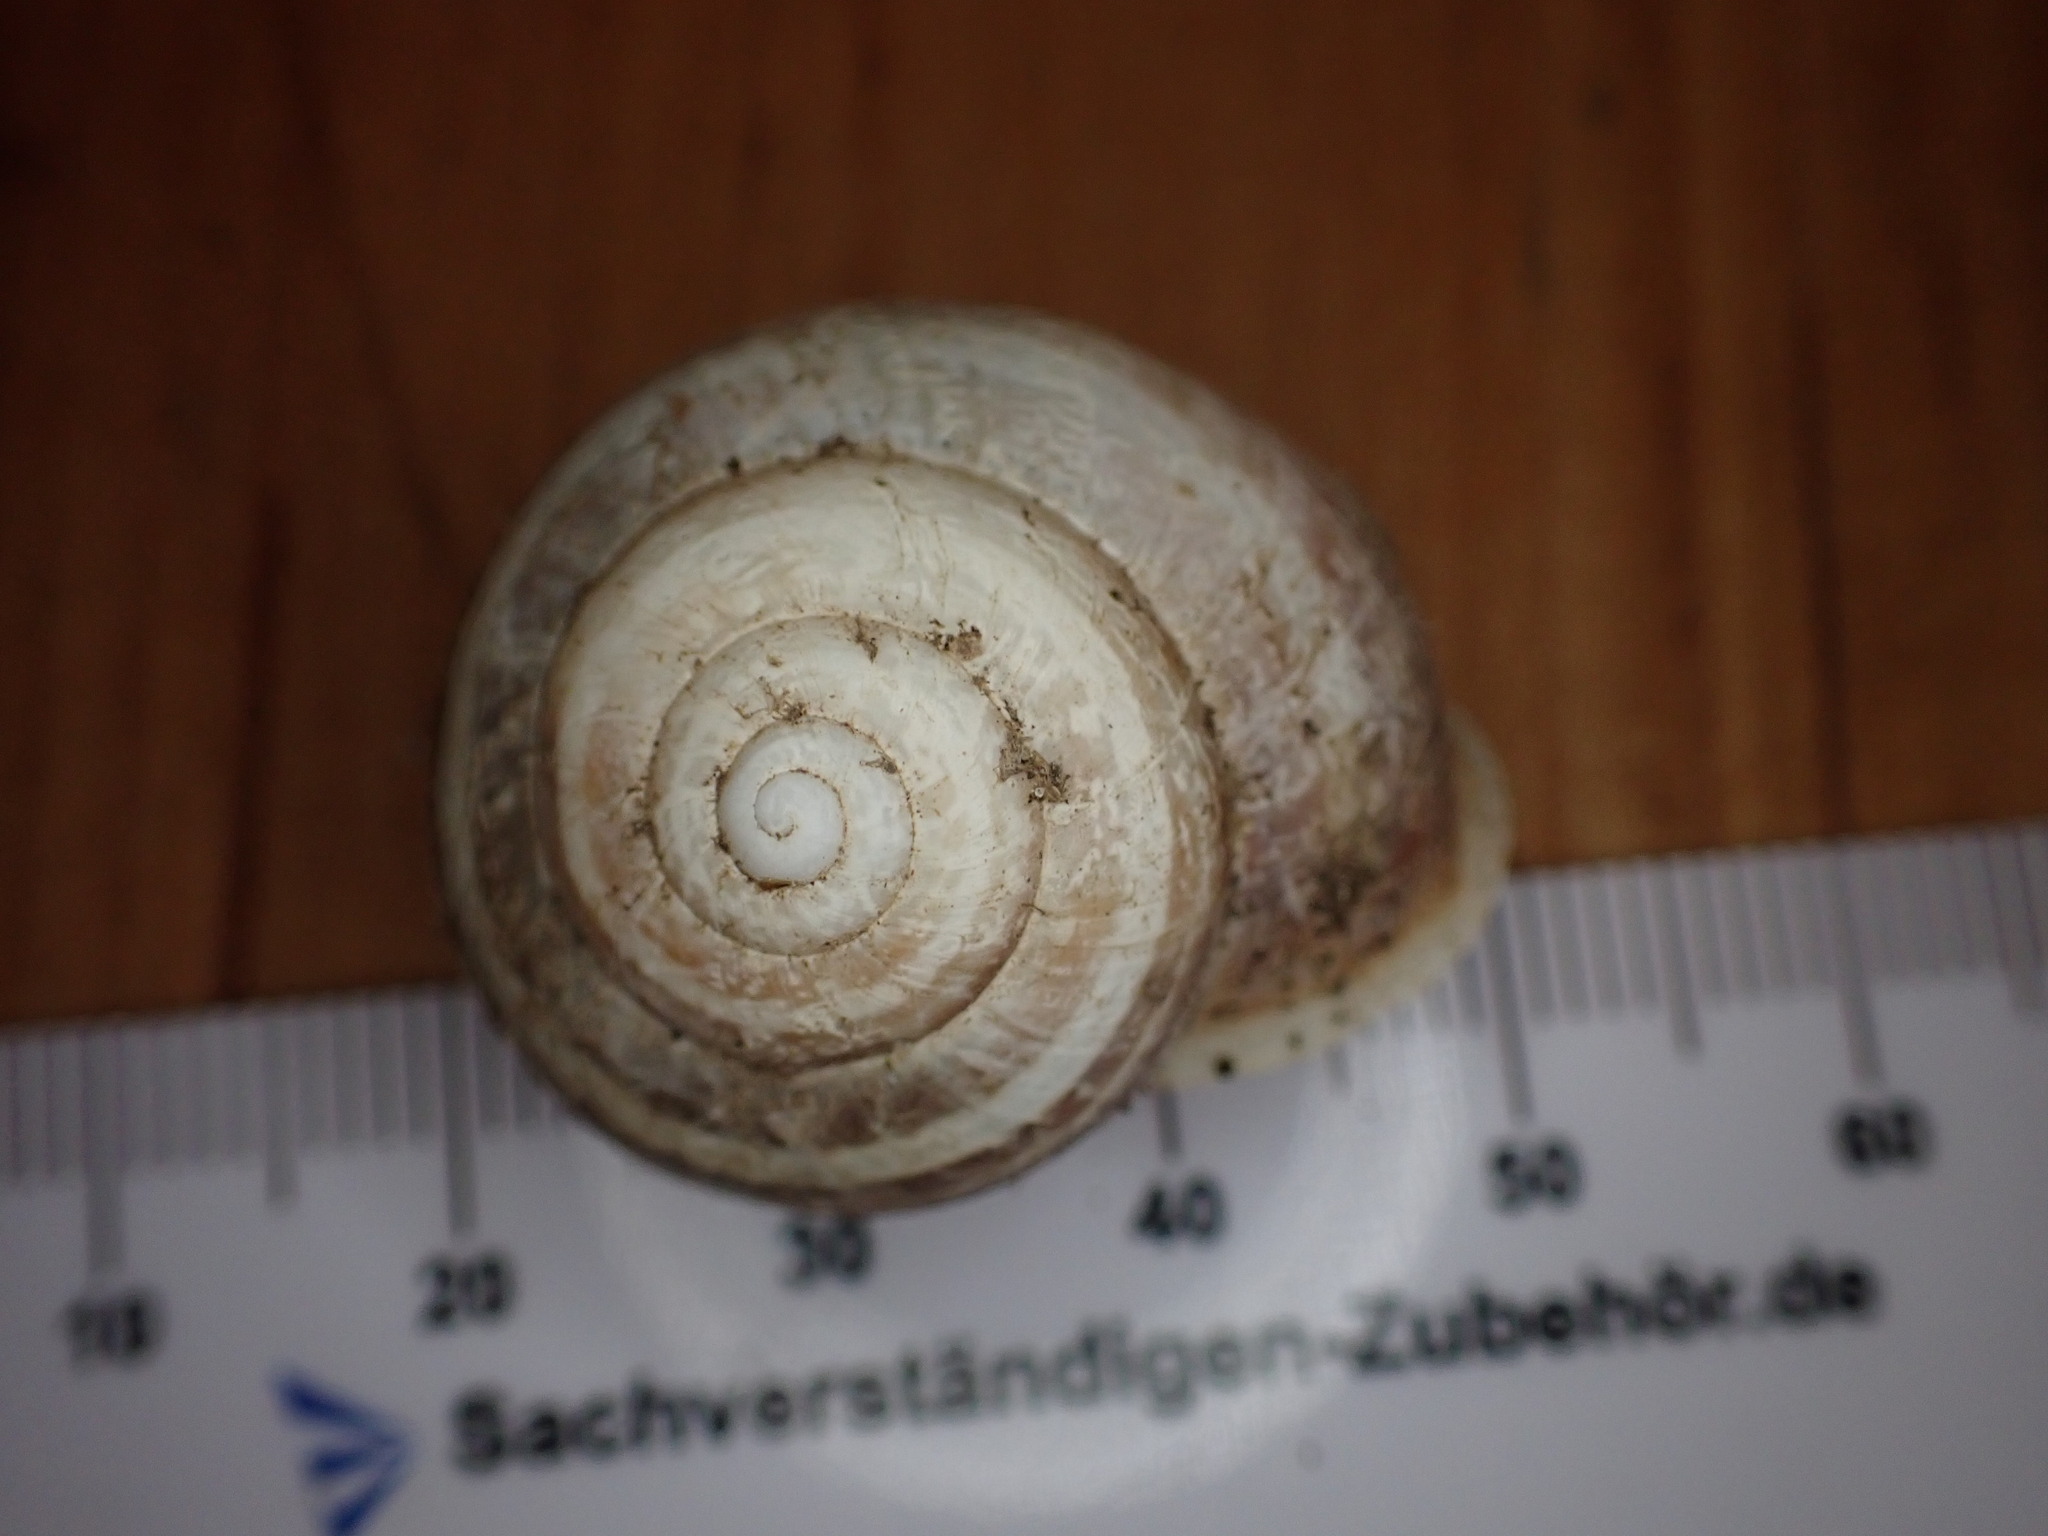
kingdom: Animalia
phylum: Mollusca
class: Gastropoda
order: Stylommatophora
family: Helicidae
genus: Eobania
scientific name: Eobania vermiculata
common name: Chocolateband snail
